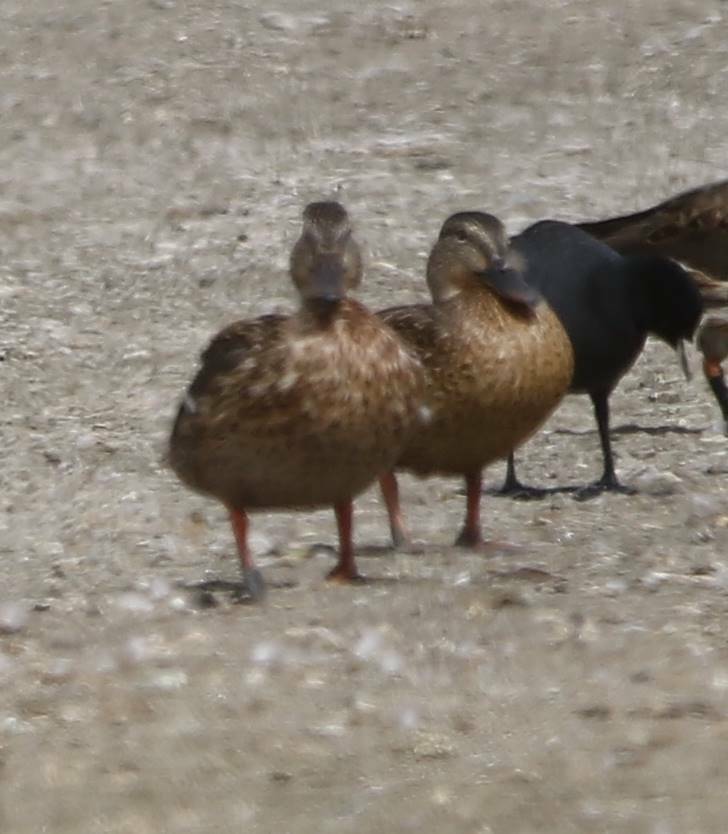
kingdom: Animalia
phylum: Chordata
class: Aves
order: Anseriformes
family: Anatidae
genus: Anas
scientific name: Anas platyrhynchos
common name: Mallard
